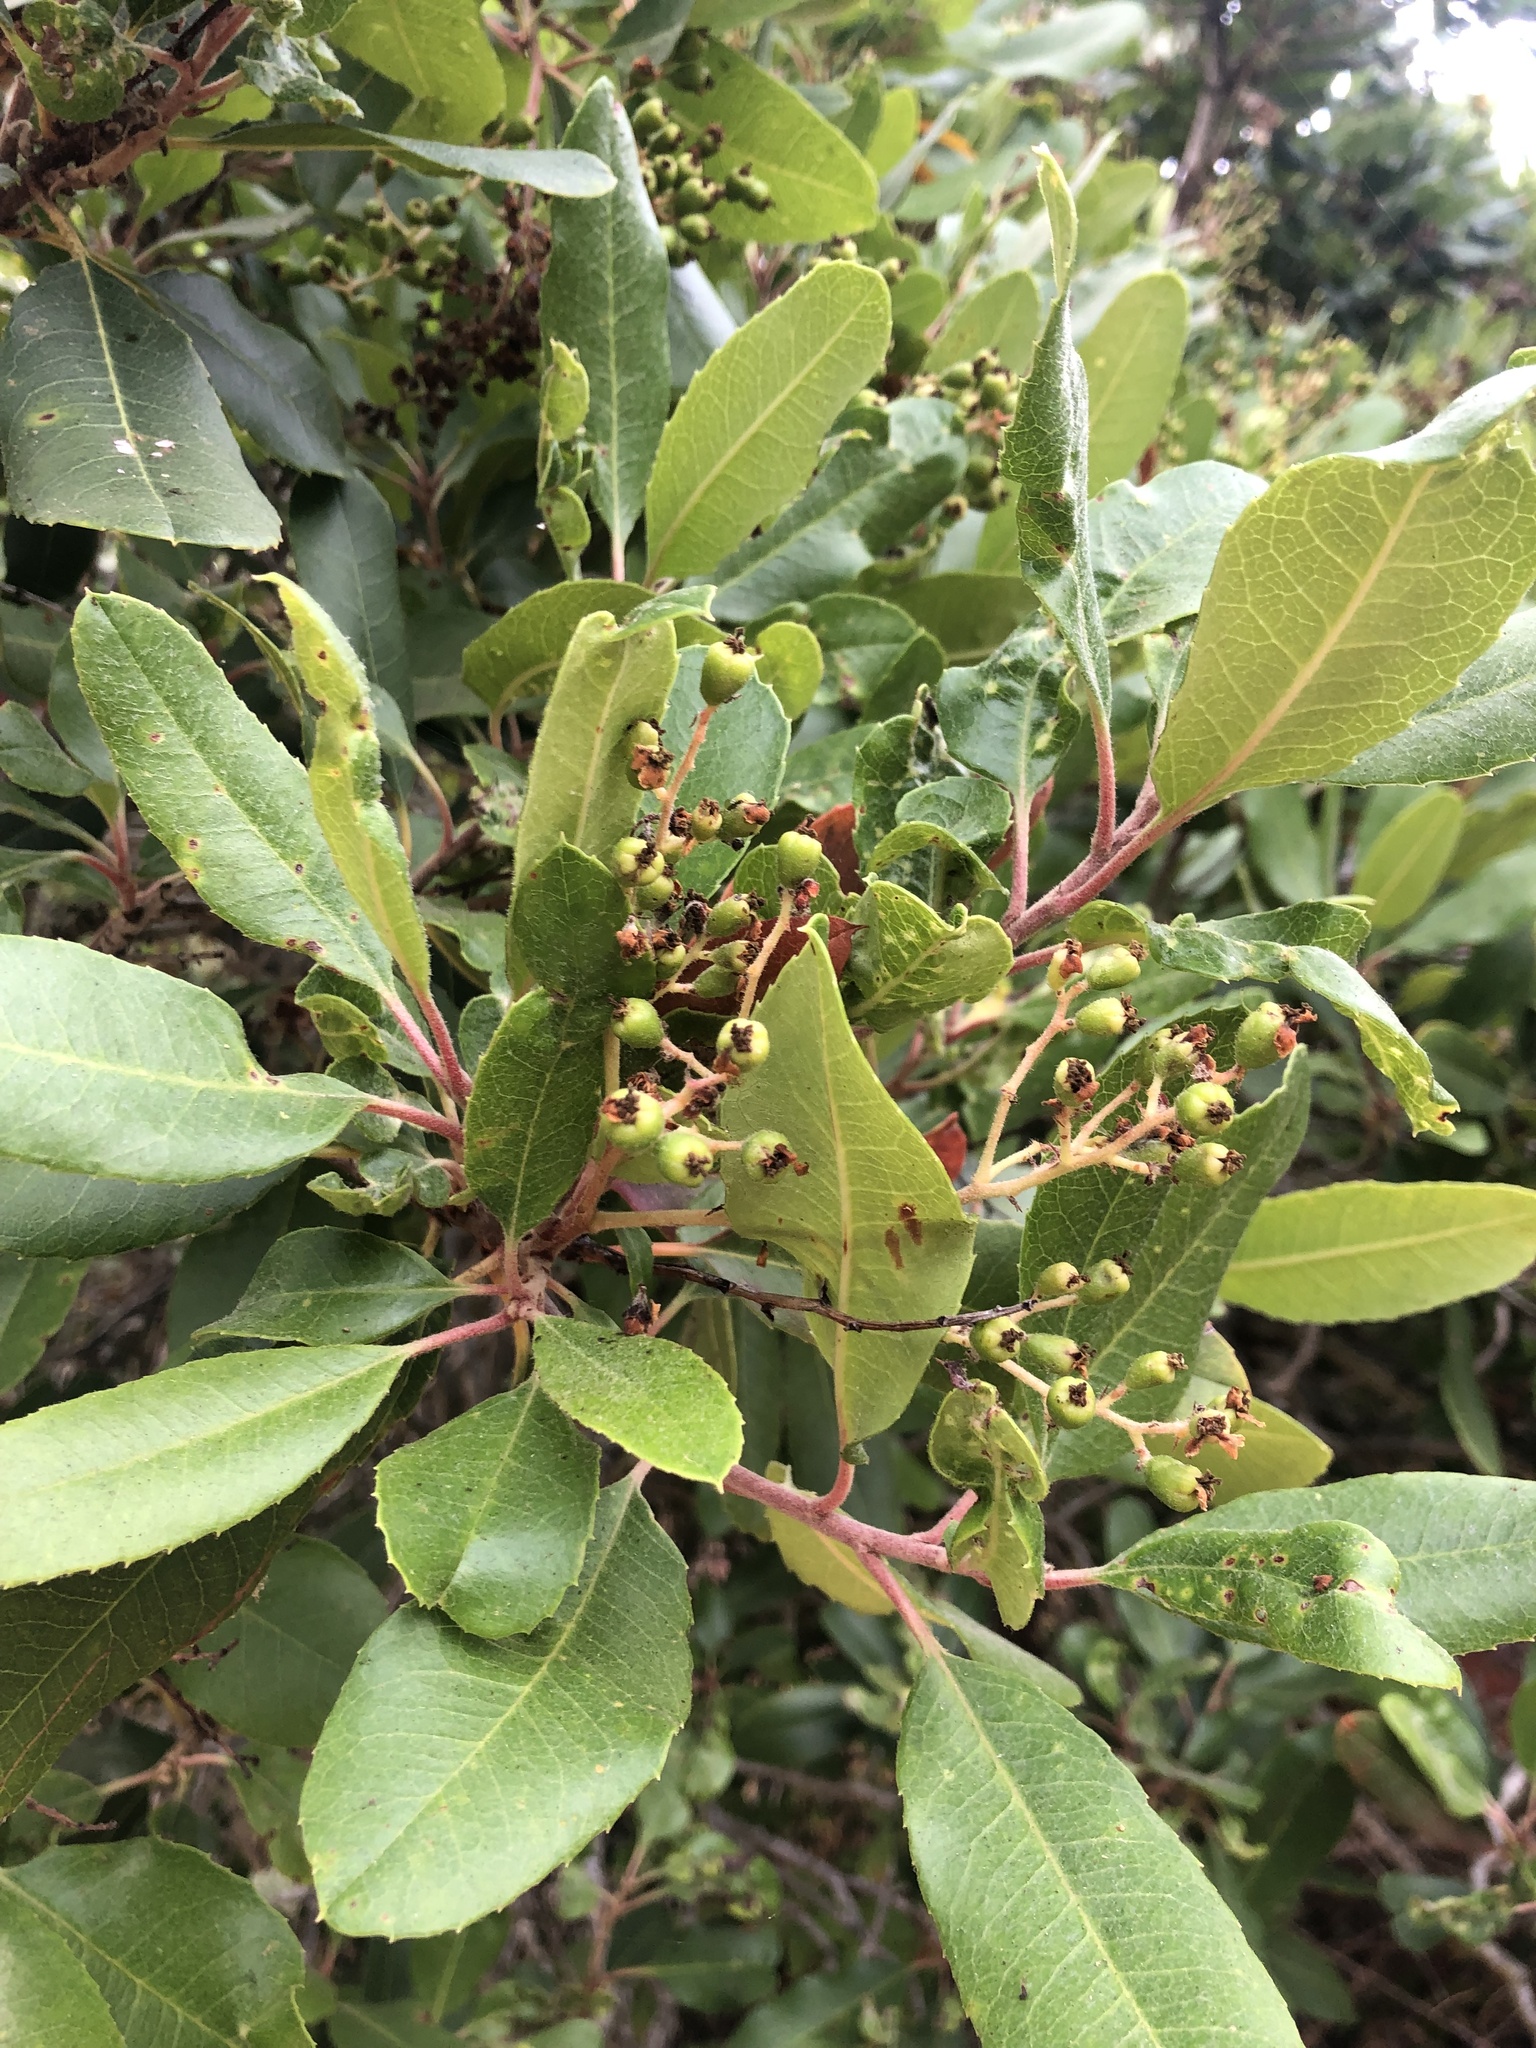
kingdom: Plantae
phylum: Tracheophyta
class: Magnoliopsida
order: Rosales
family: Rosaceae
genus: Heteromeles
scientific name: Heteromeles arbutifolia
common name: California-holly
